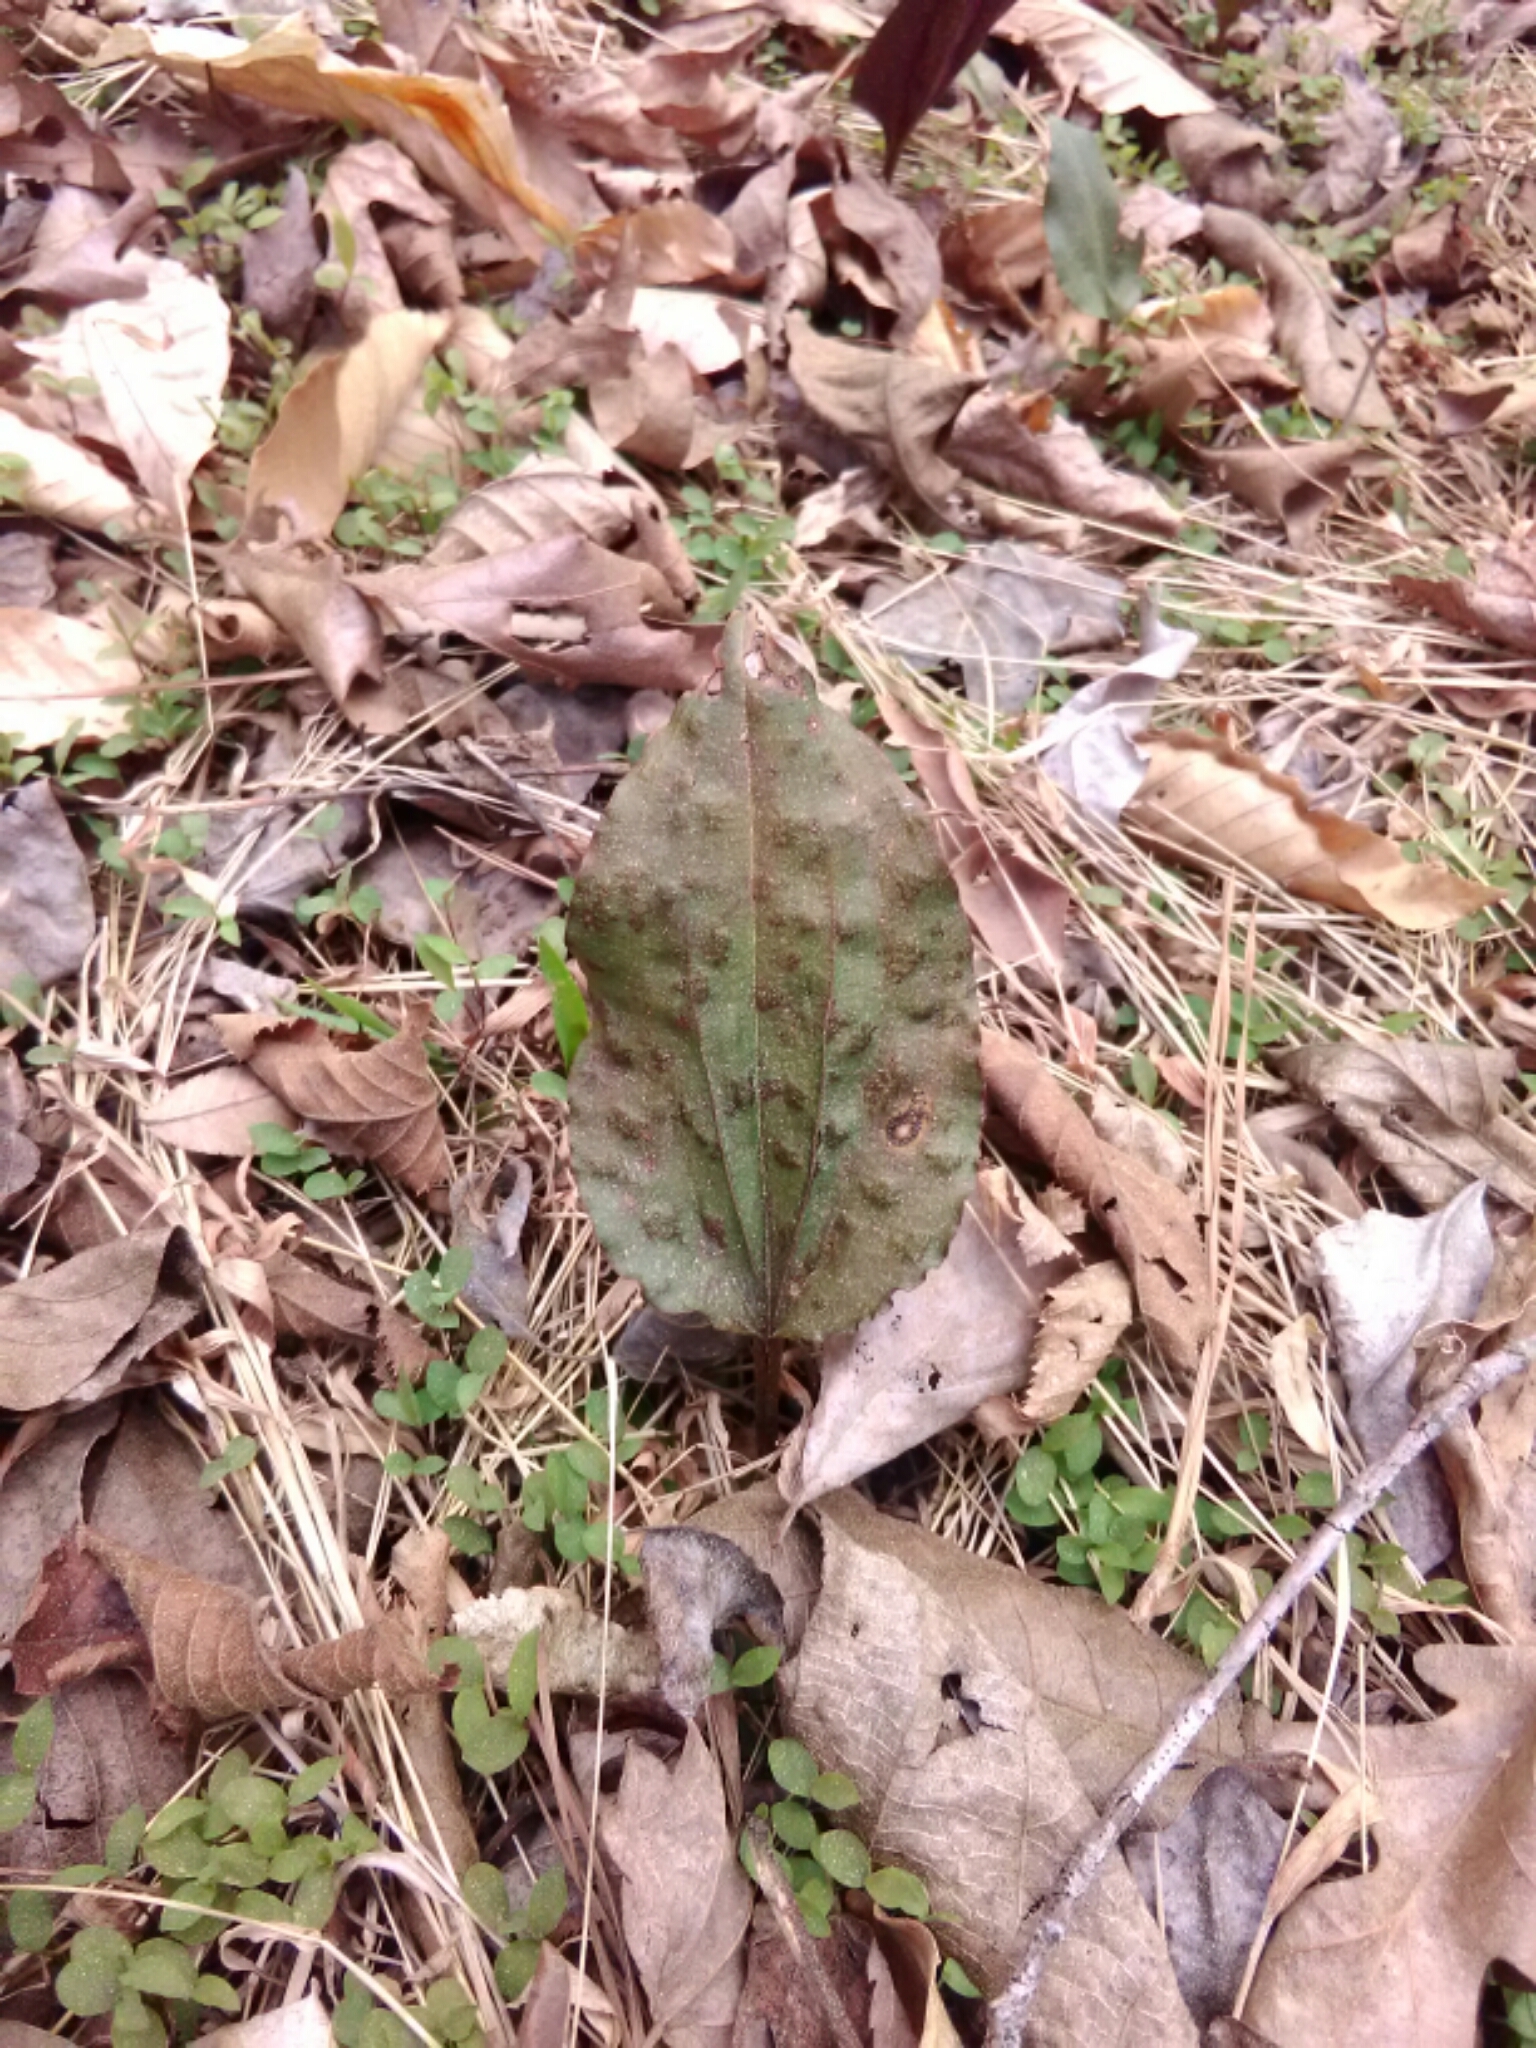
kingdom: Plantae
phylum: Tracheophyta
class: Liliopsida
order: Asparagales
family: Orchidaceae
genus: Tipularia
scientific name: Tipularia discolor
